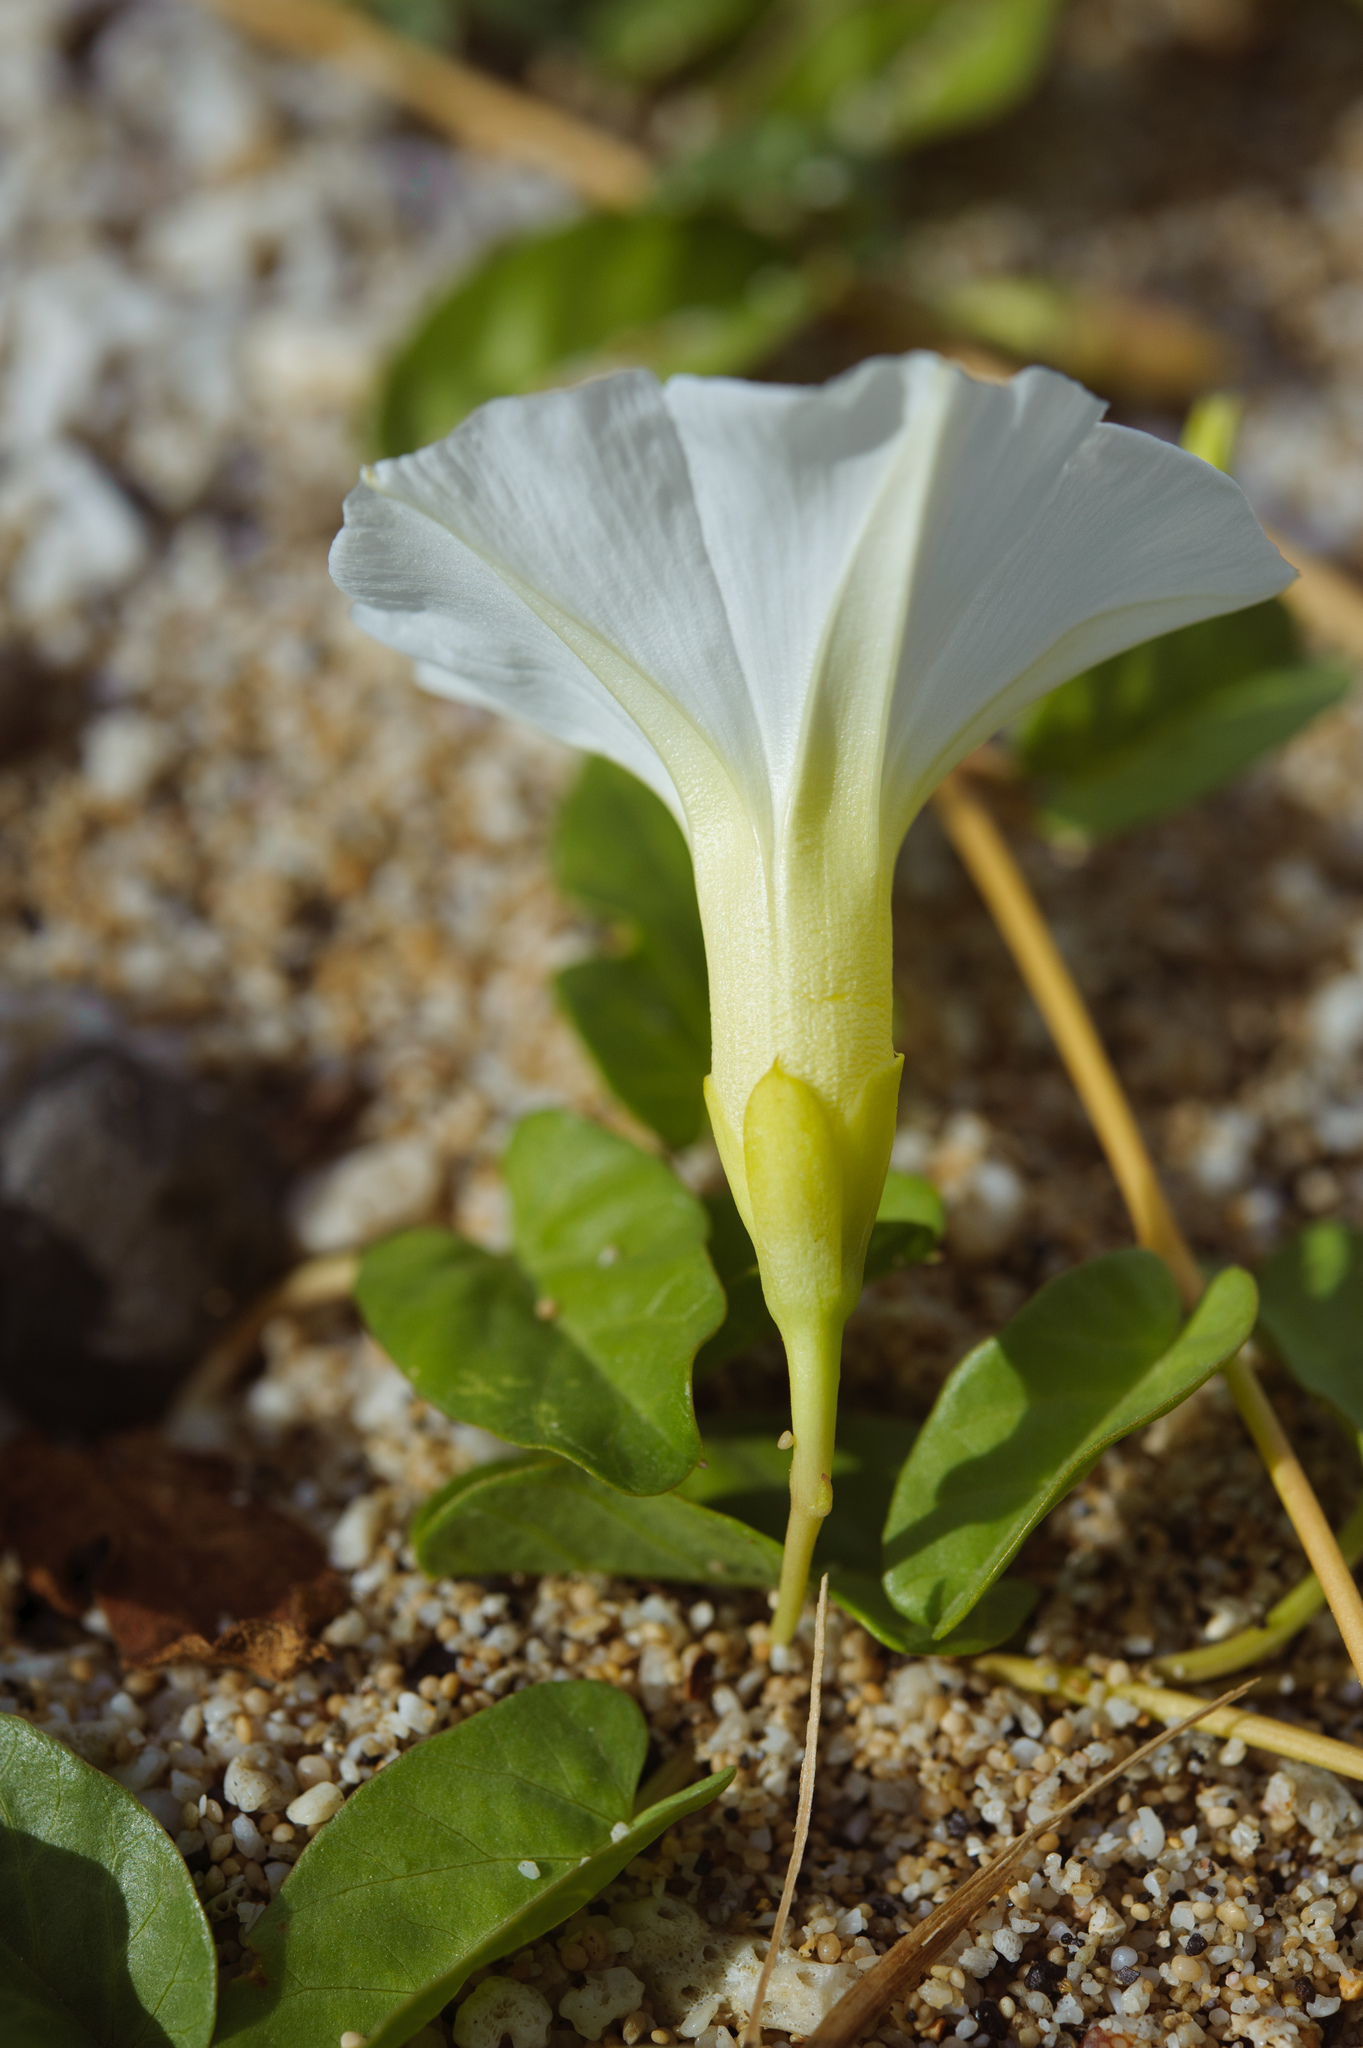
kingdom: Plantae
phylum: Tracheophyta
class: Magnoliopsida
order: Solanales
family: Convolvulaceae
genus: Ipomoea
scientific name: Ipomoea imperati
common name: Fiddle-leaf morning-glory
